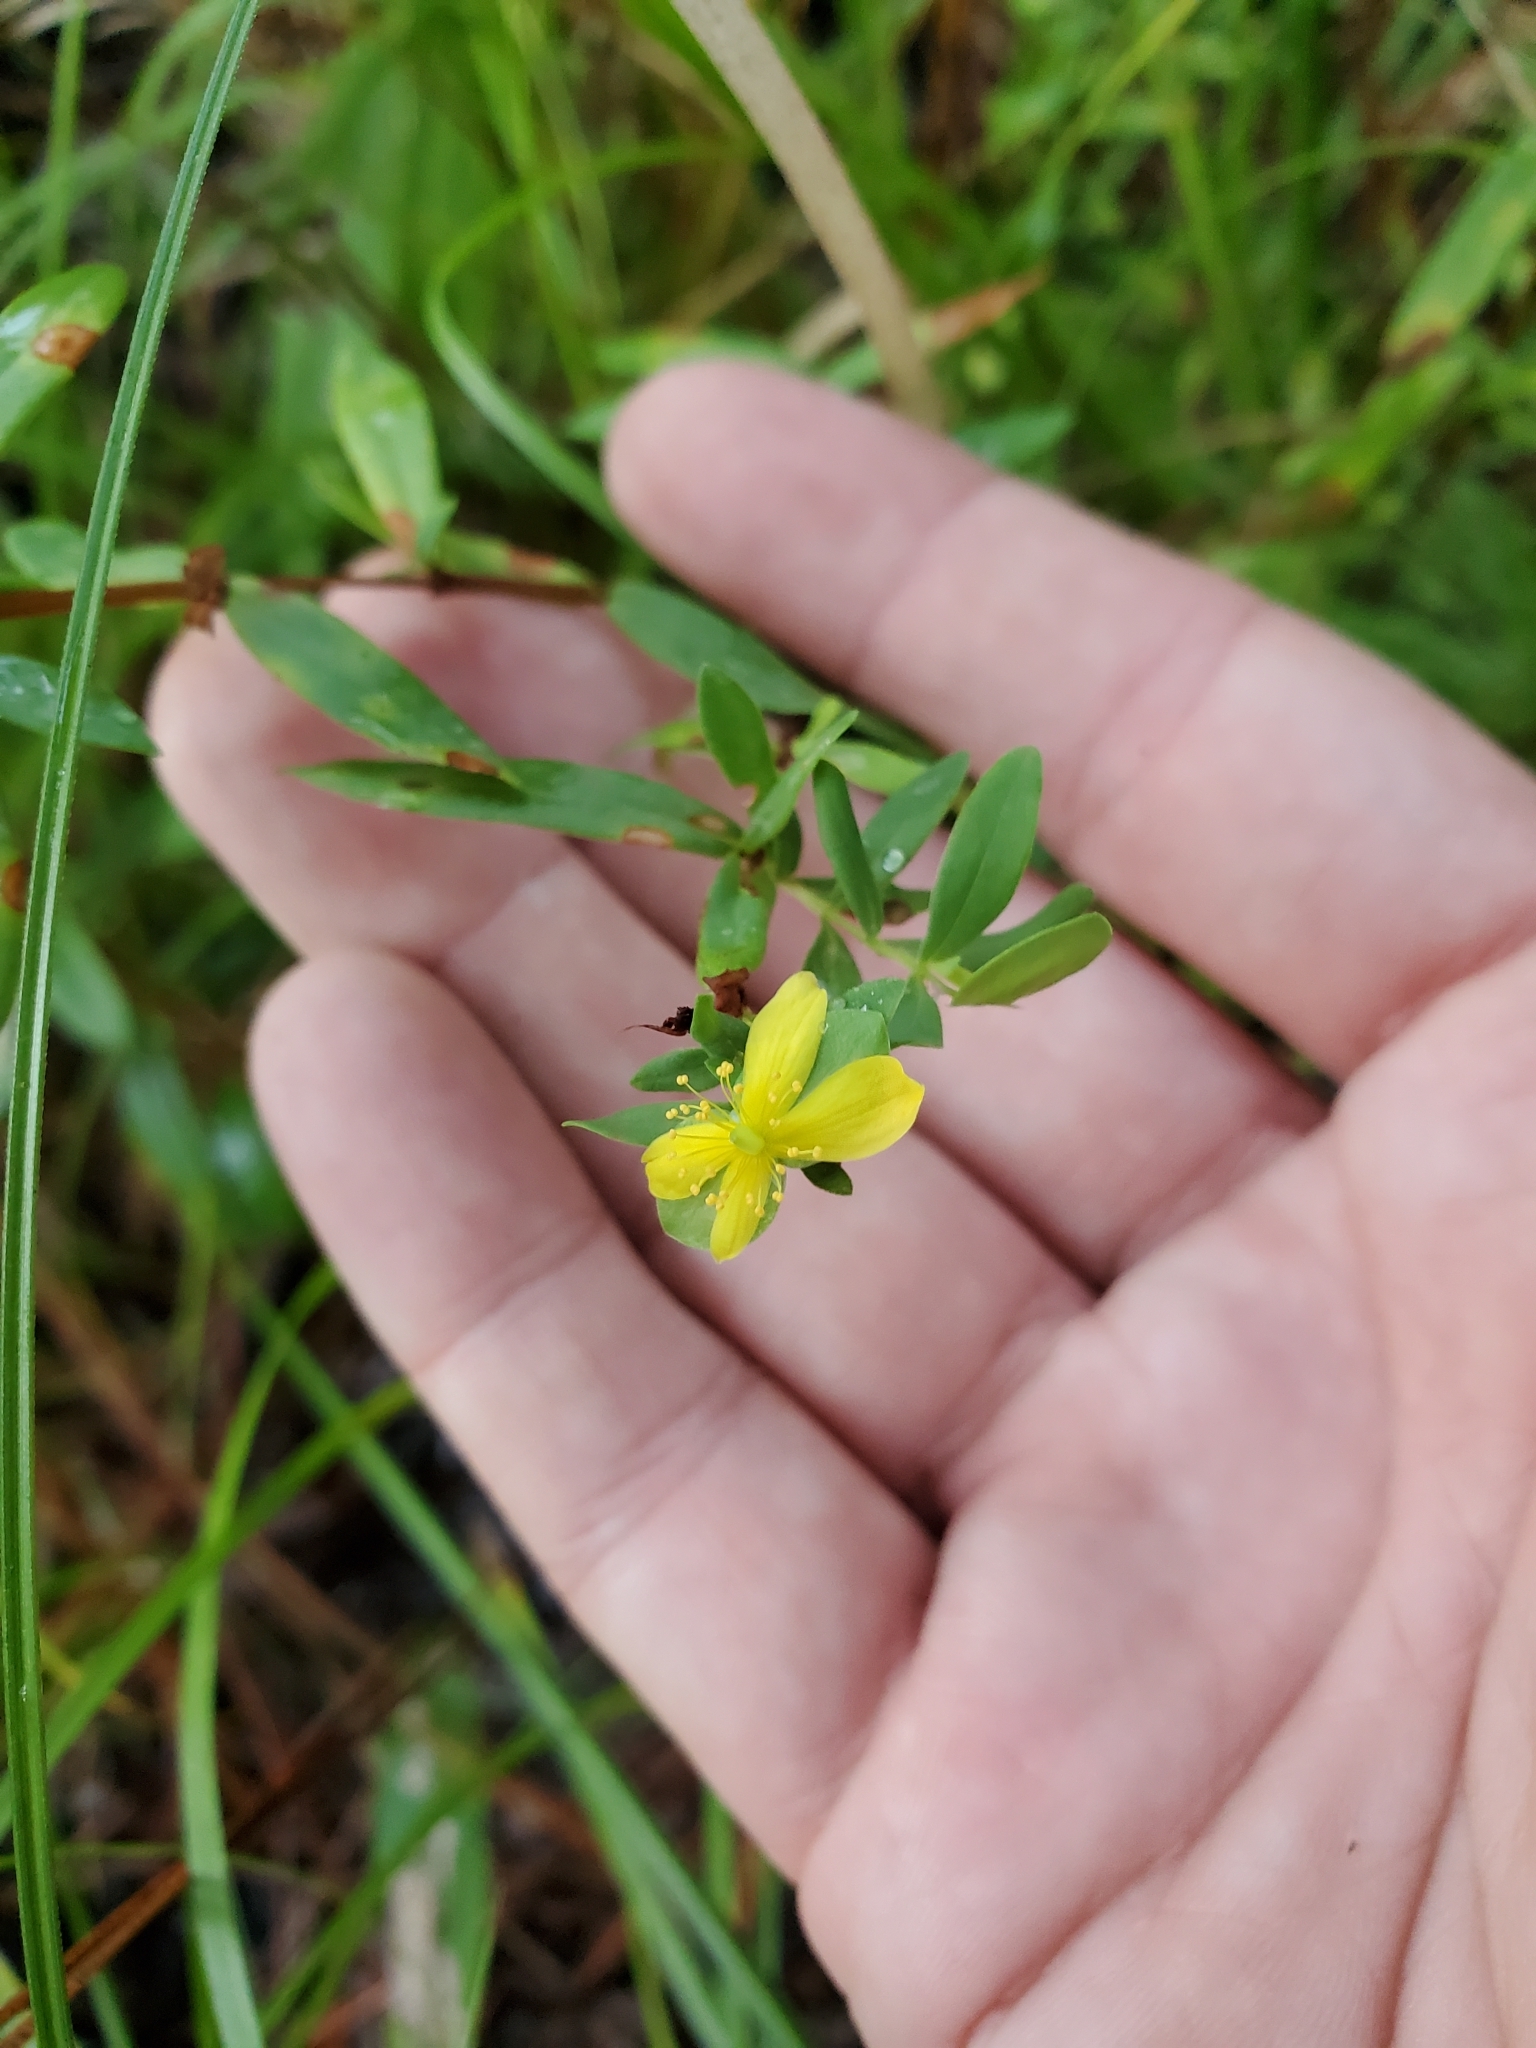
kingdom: Plantae
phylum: Tracheophyta
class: Magnoliopsida
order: Malpighiales
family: Hypericaceae
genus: Hypericum
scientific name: Hypericum hypericoides
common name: St. andrew's cross
